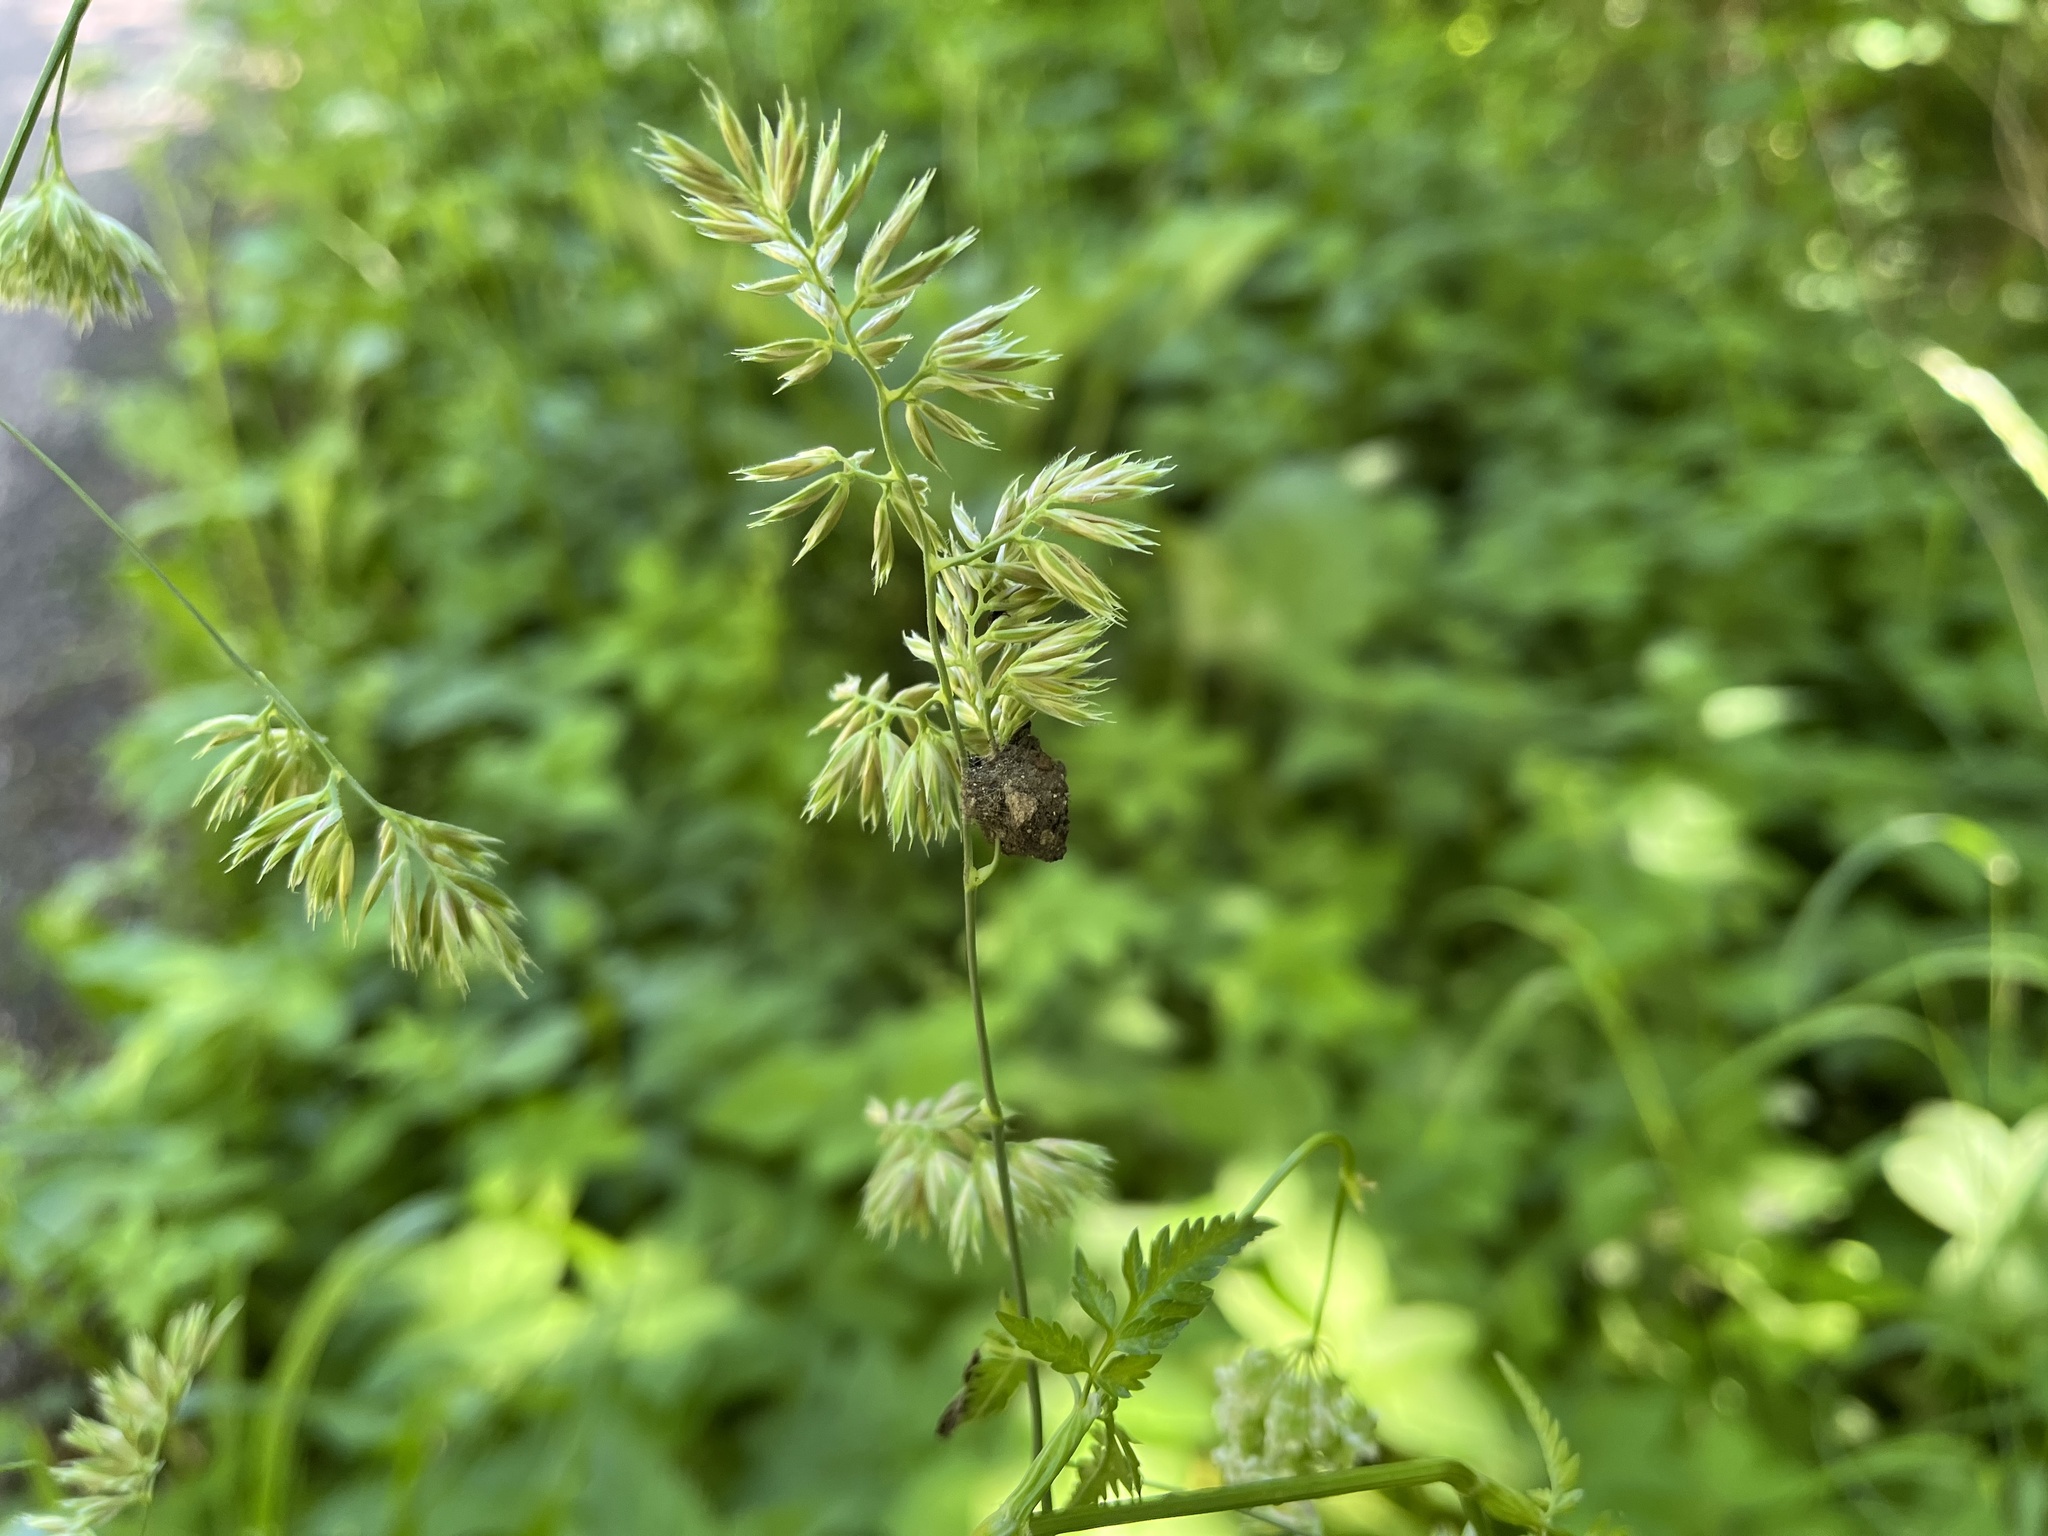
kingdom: Plantae
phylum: Tracheophyta
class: Liliopsida
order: Poales
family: Poaceae
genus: Dactylis
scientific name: Dactylis glomerata
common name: Orchardgrass
